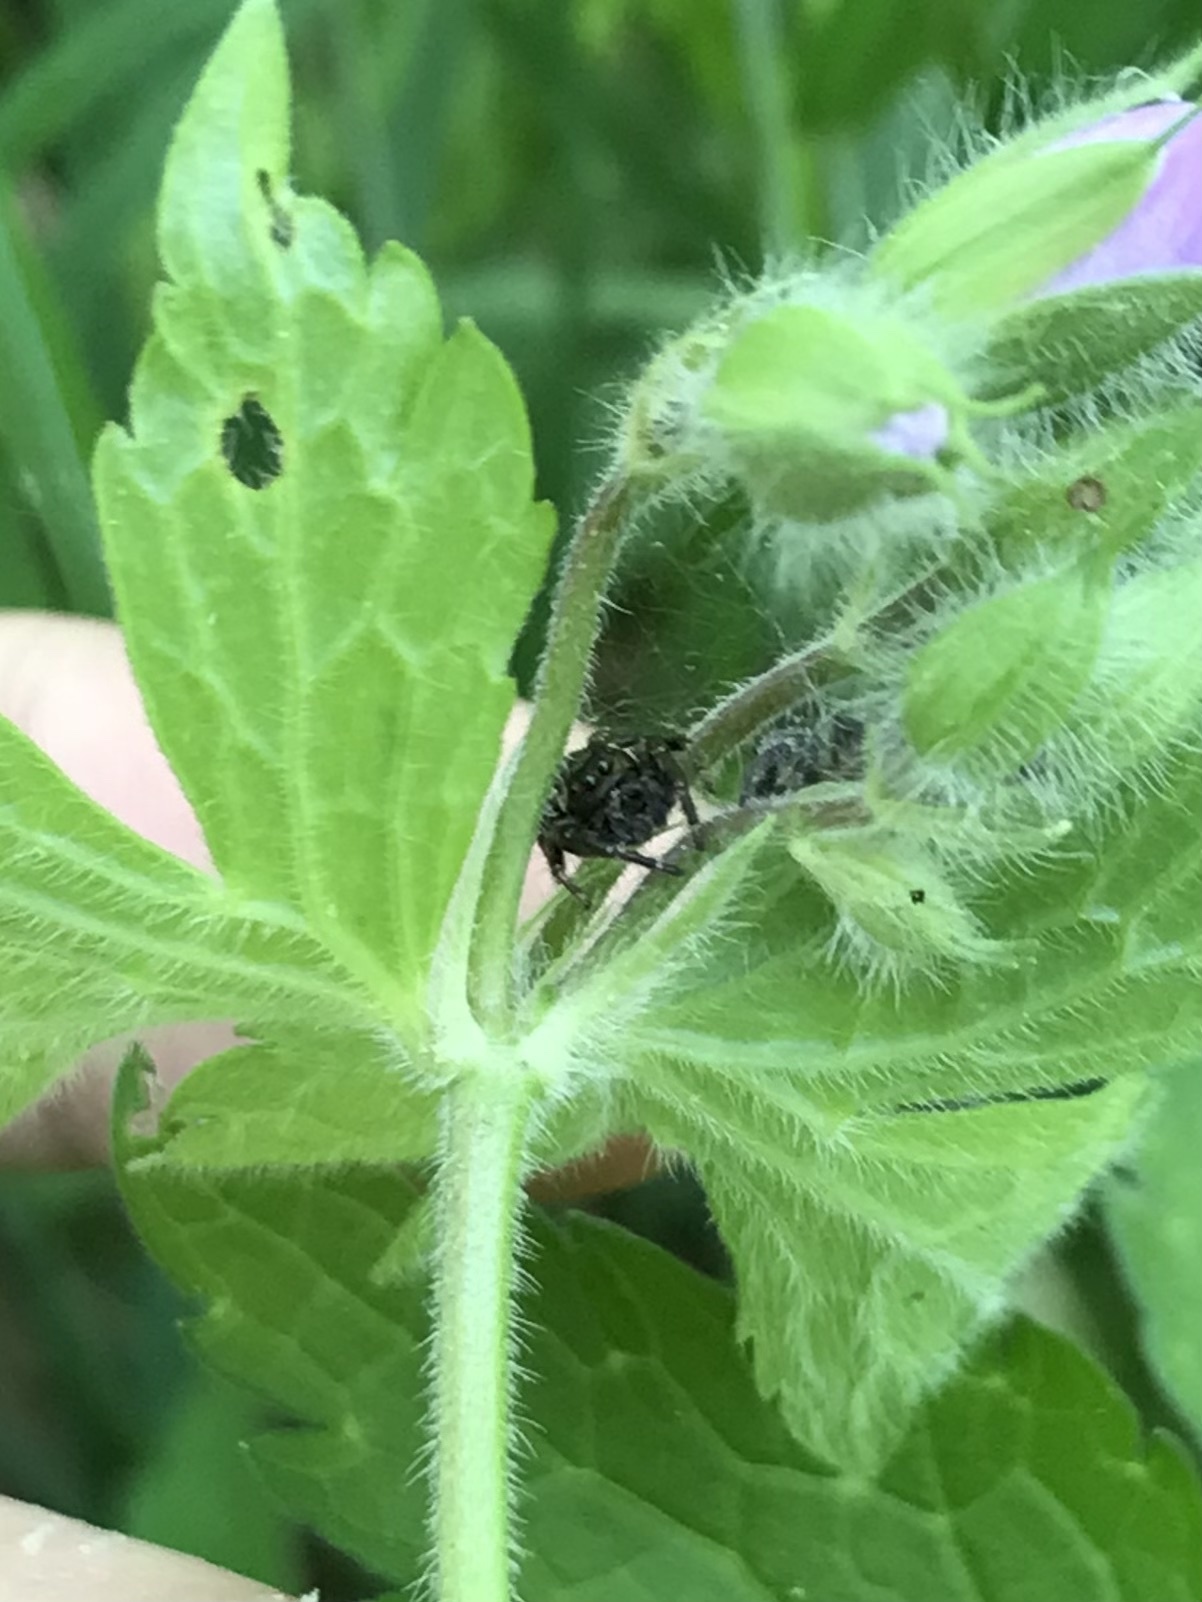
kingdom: Animalia
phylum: Arthropoda
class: Arachnida
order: Araneae
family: Salticidae
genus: Eris
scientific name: Eris militaris
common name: Bronze jumper
